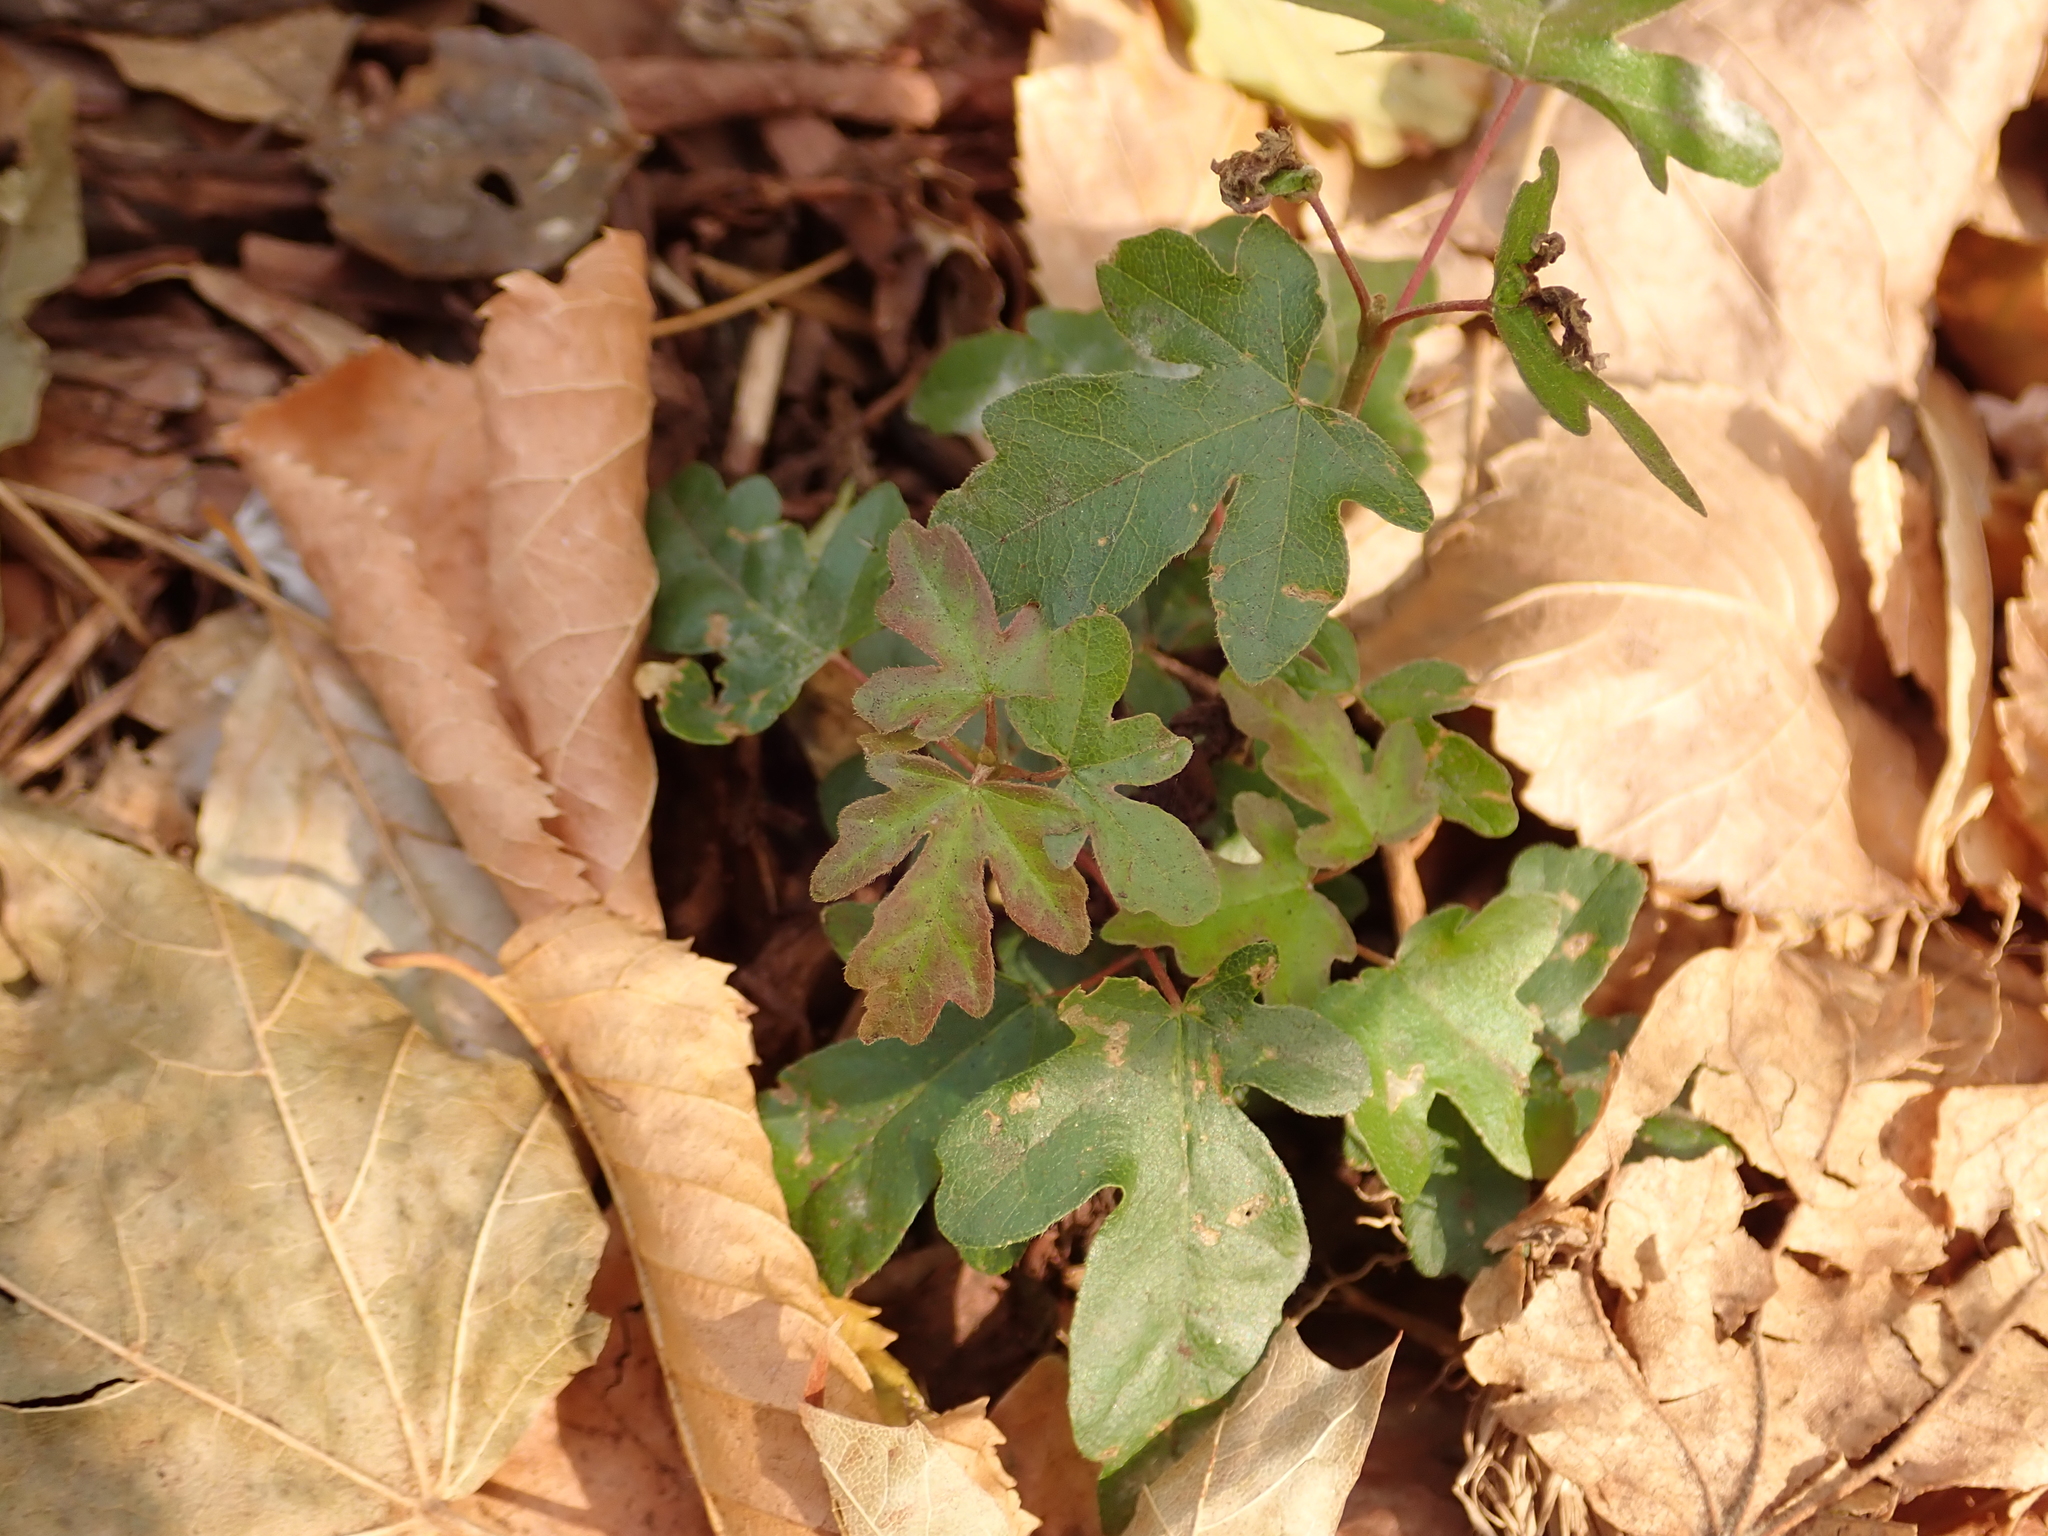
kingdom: Plantae
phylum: Tracheophyta
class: Magnoliopsida
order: Sapindales
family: Sapindaceae
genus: Acer
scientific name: Acer campestre
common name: Field maple
